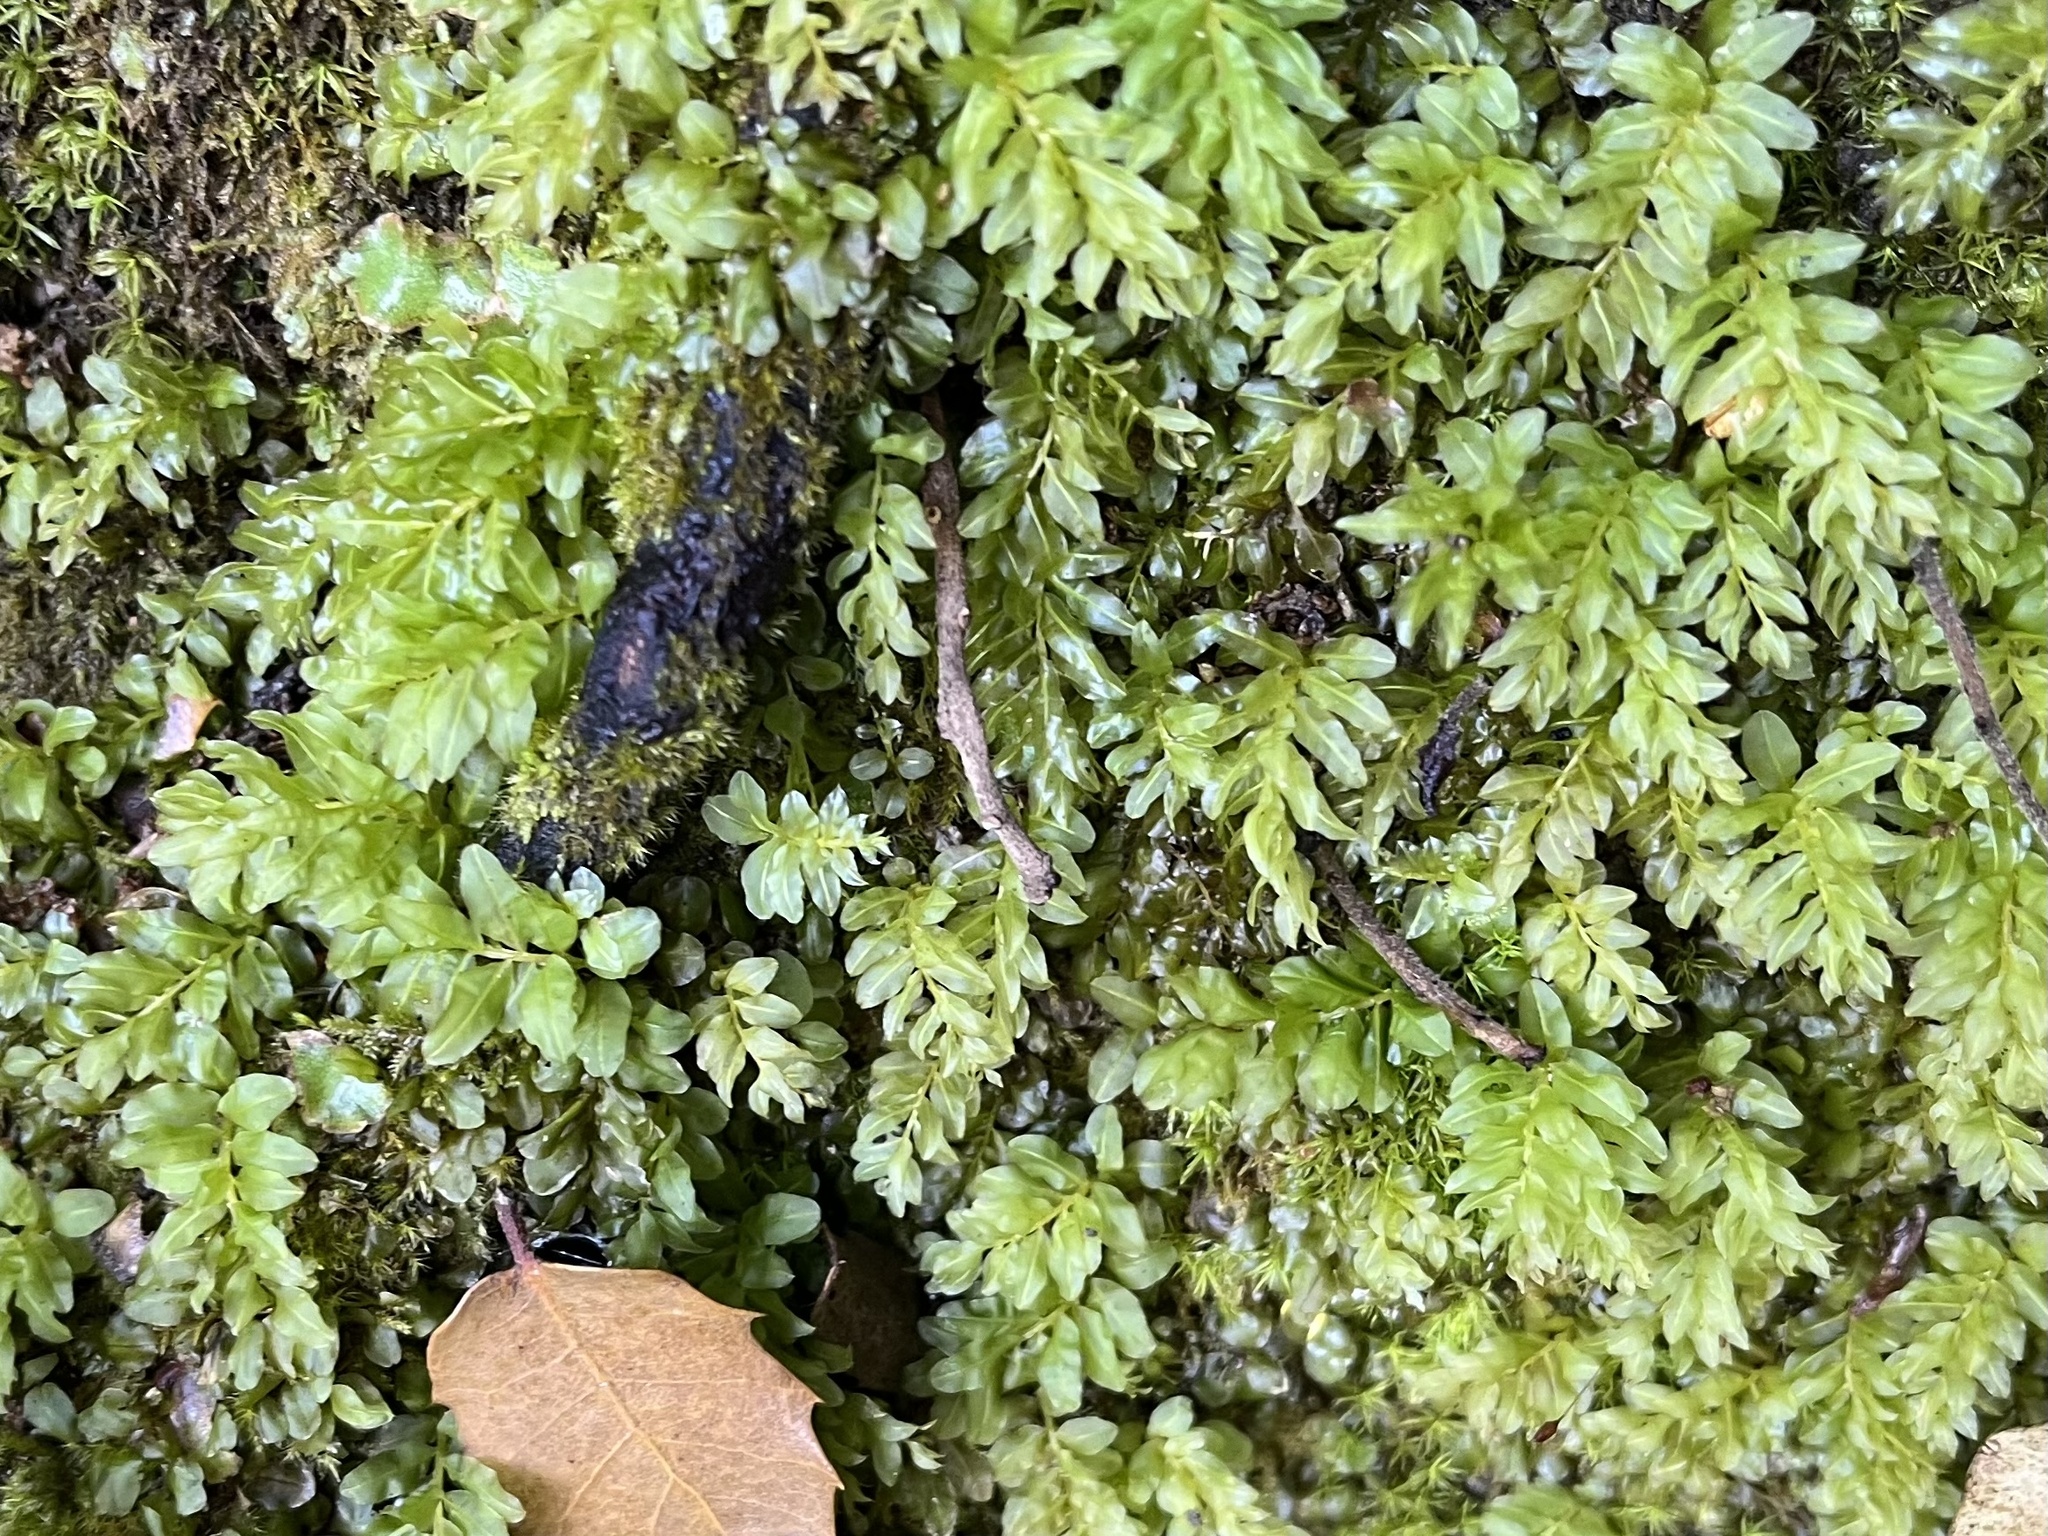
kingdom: Plantae
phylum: Bryophyta
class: Bryopsida
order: Bryales
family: Mniaceae
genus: Plagiomnium
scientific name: Plagiomnium undulatum
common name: Hart's-tongue thyme-moss
